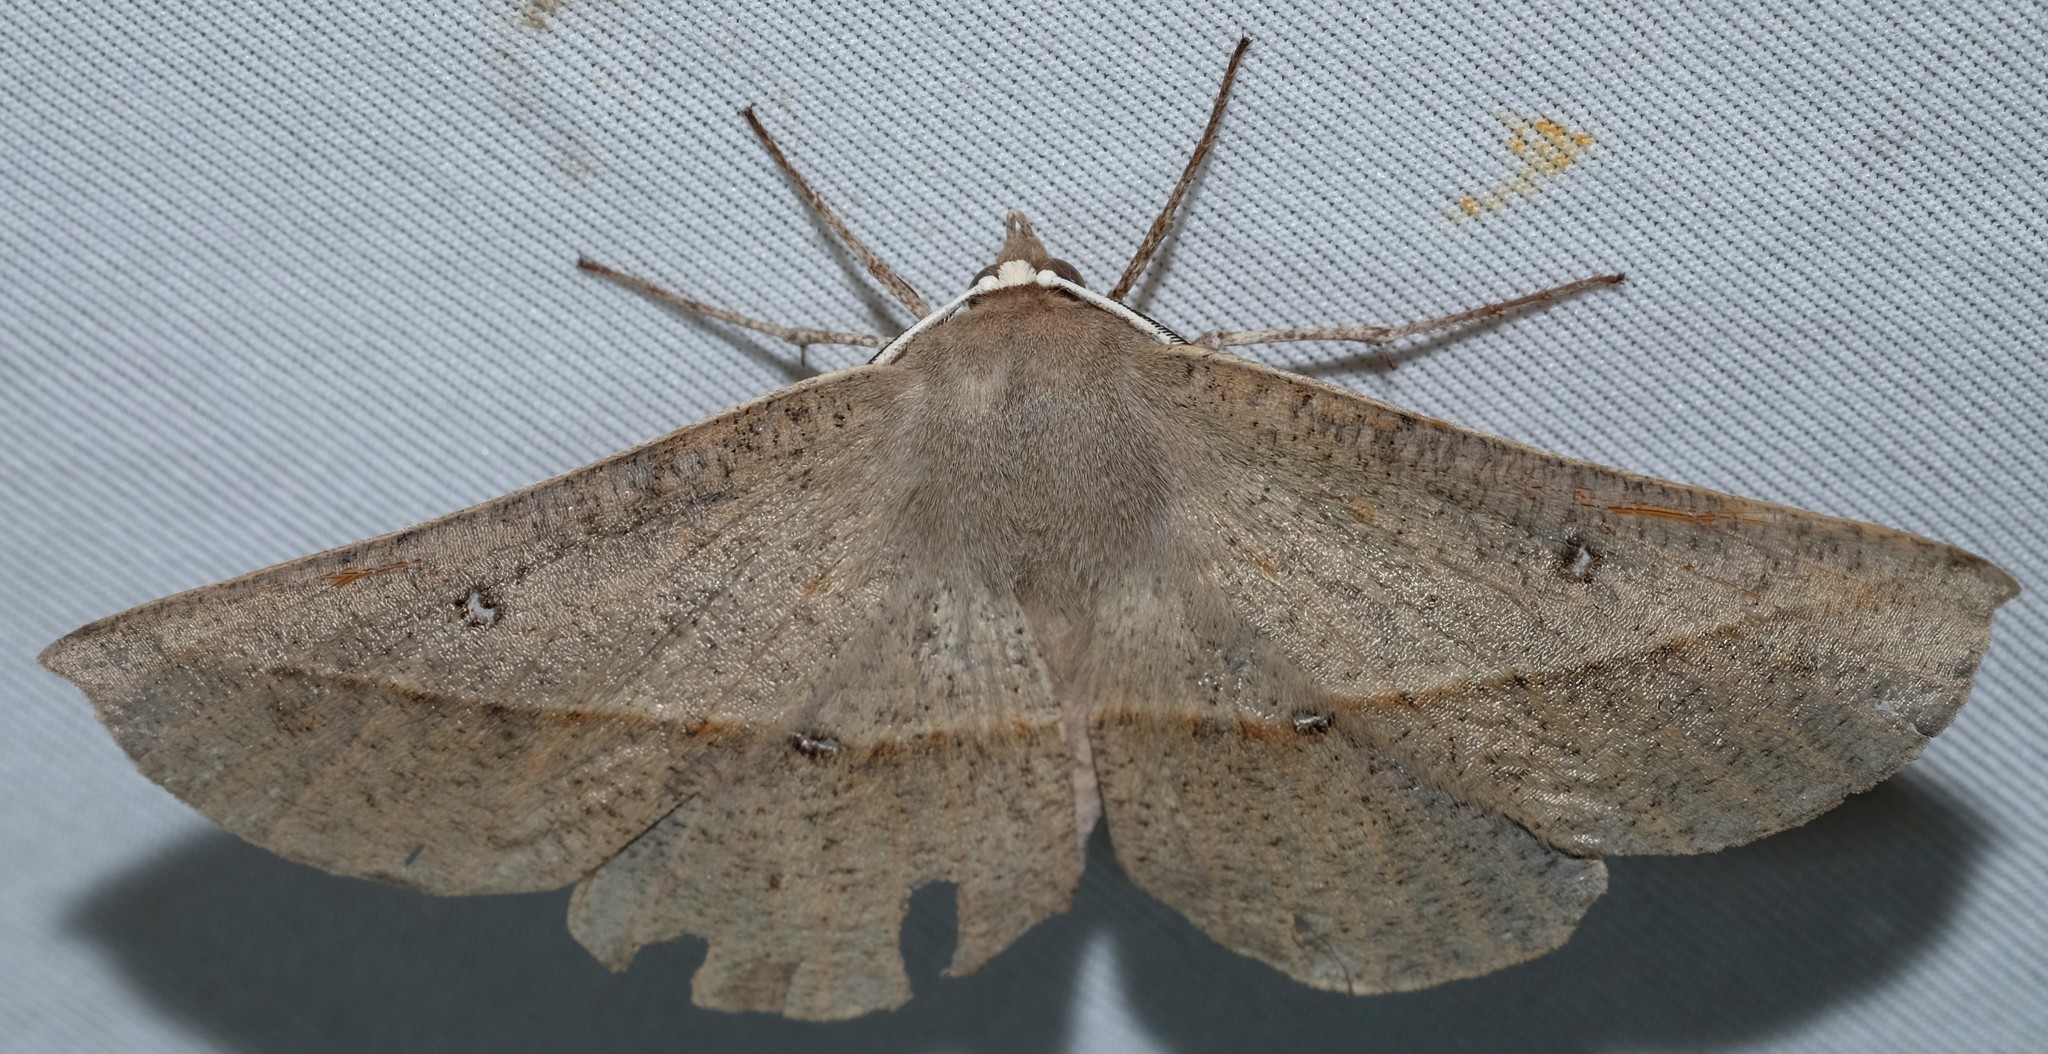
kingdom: Animalia
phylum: Arthropoda
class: Insecta
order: Lepidoptera
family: Geometridae
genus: Phallaria
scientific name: Phallaria ophiusaria
